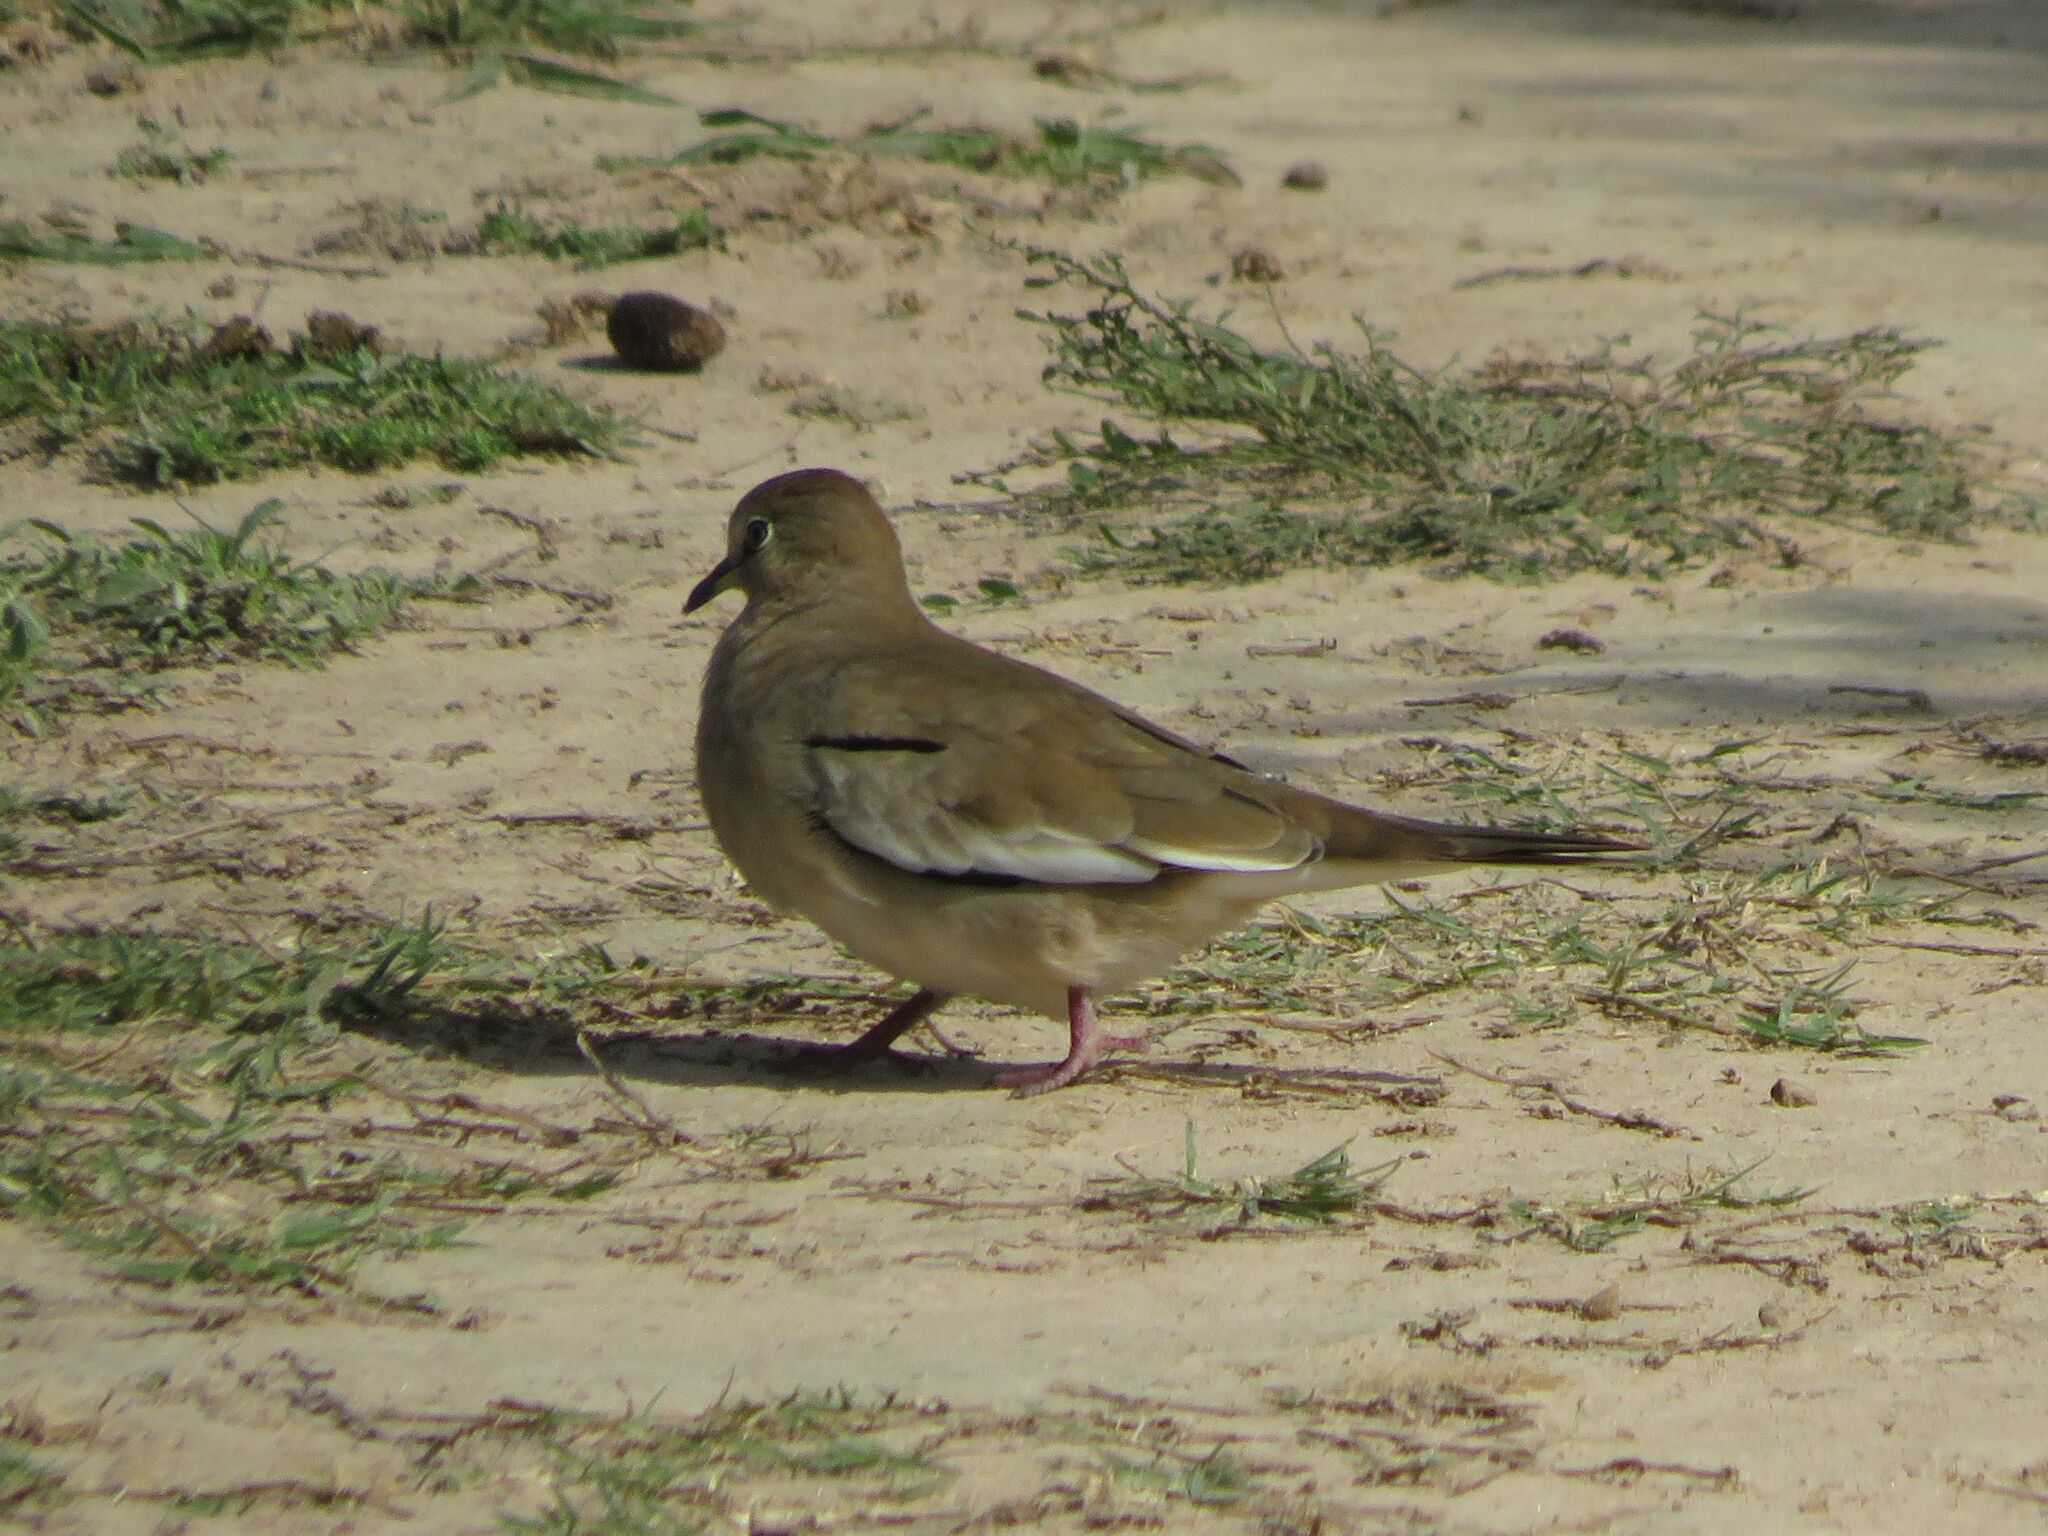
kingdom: Animalia
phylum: Chordata
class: Aves
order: Columbiformes
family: Columbidae
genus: Columbina
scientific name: Columbina picui
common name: Picui ground dove
